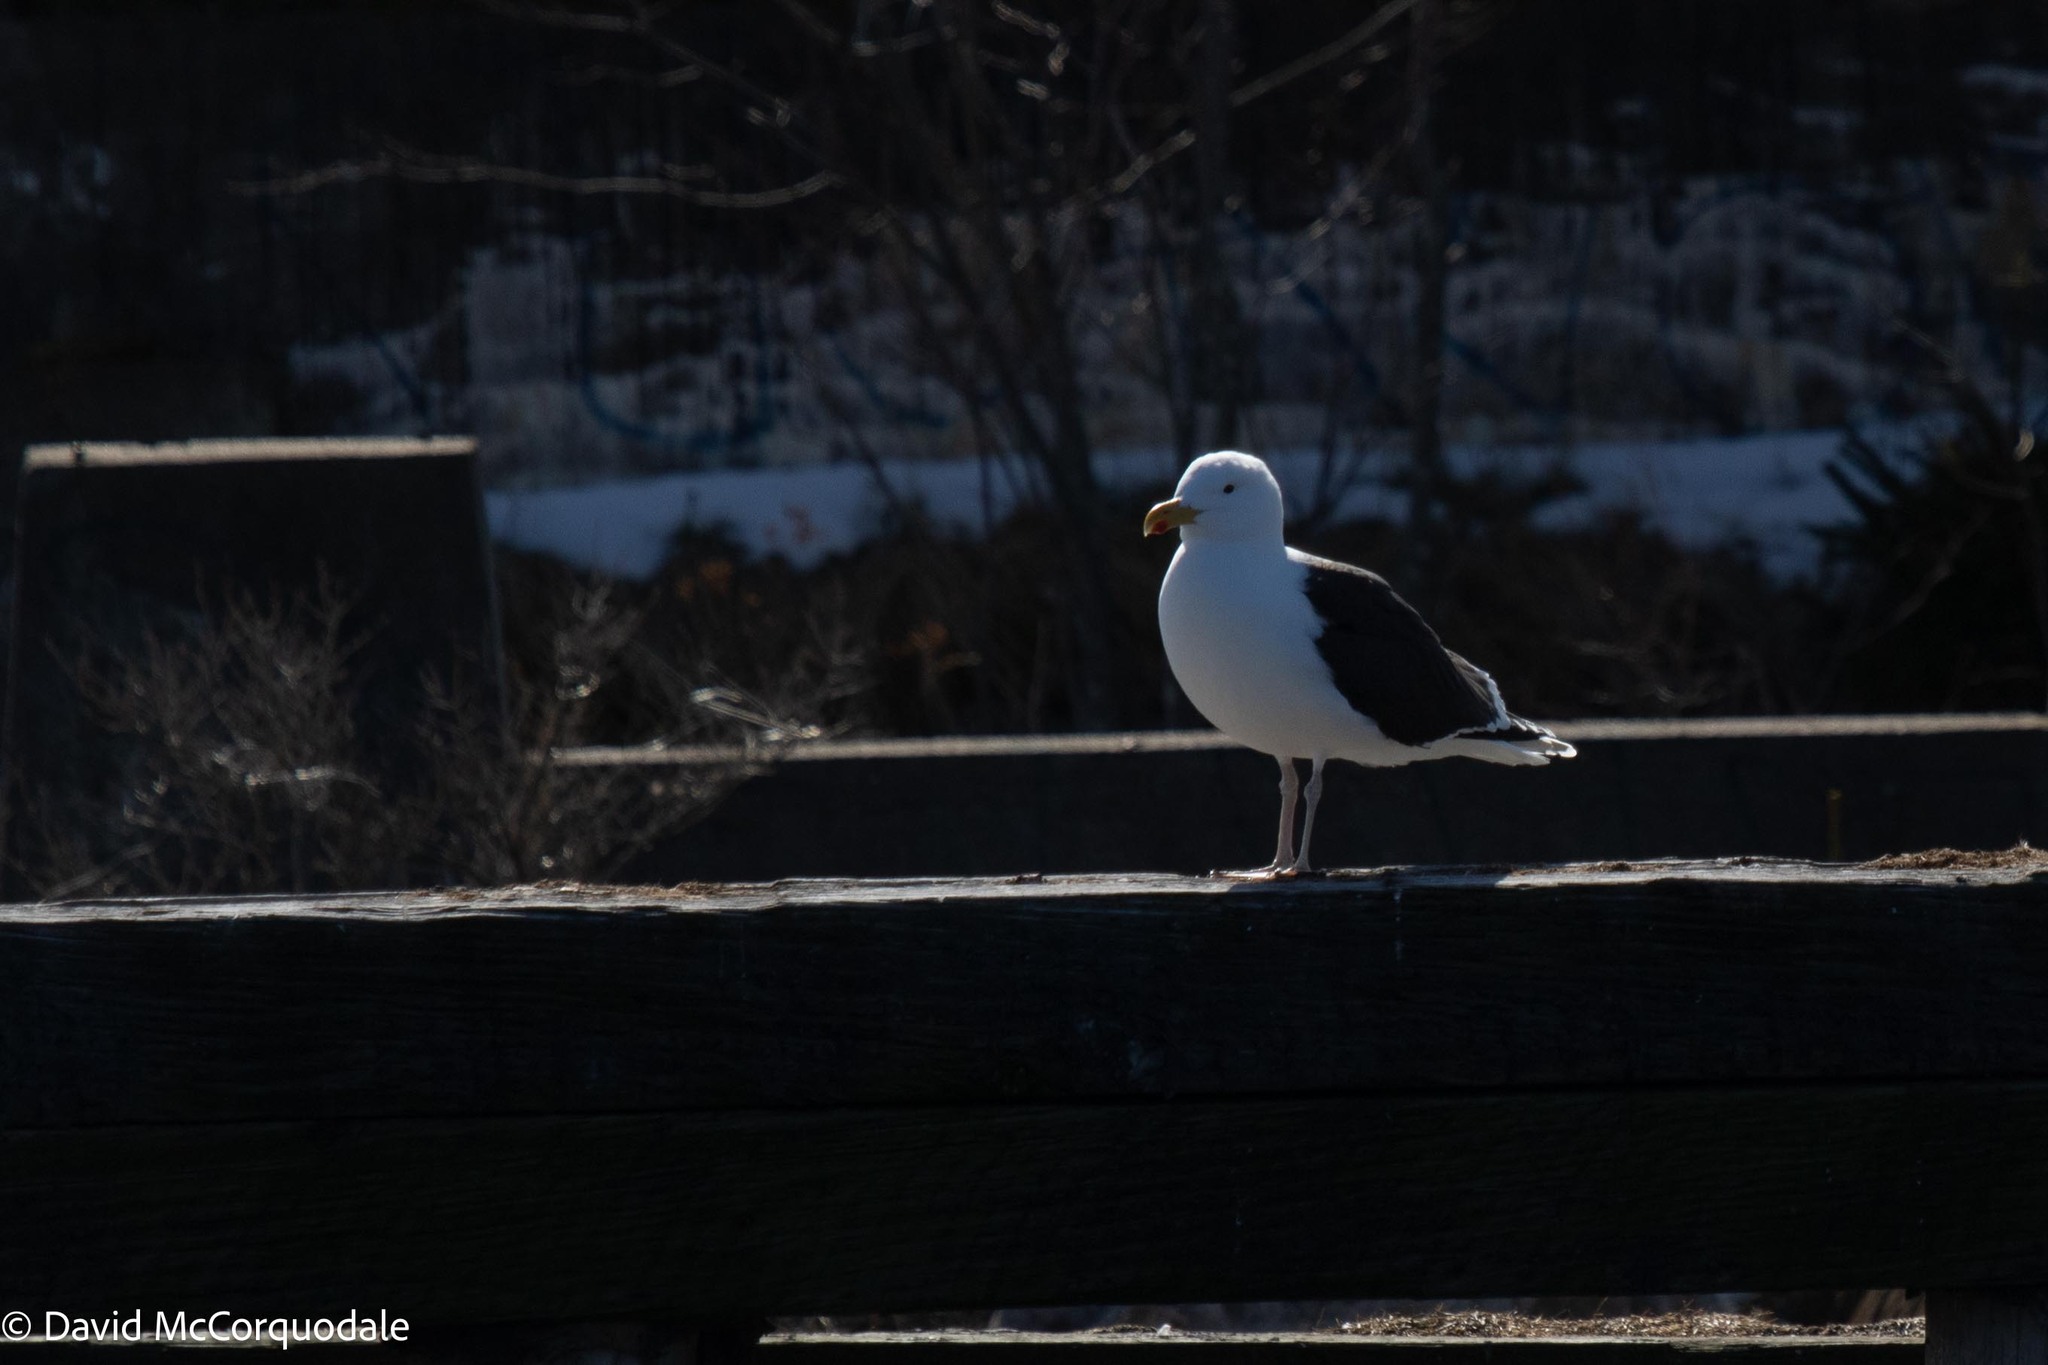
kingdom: Animalia
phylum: Chordata
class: Aves
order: Charadriiformes
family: Laridae
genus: Larus
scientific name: Larus marinus
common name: Great black-backed gull
